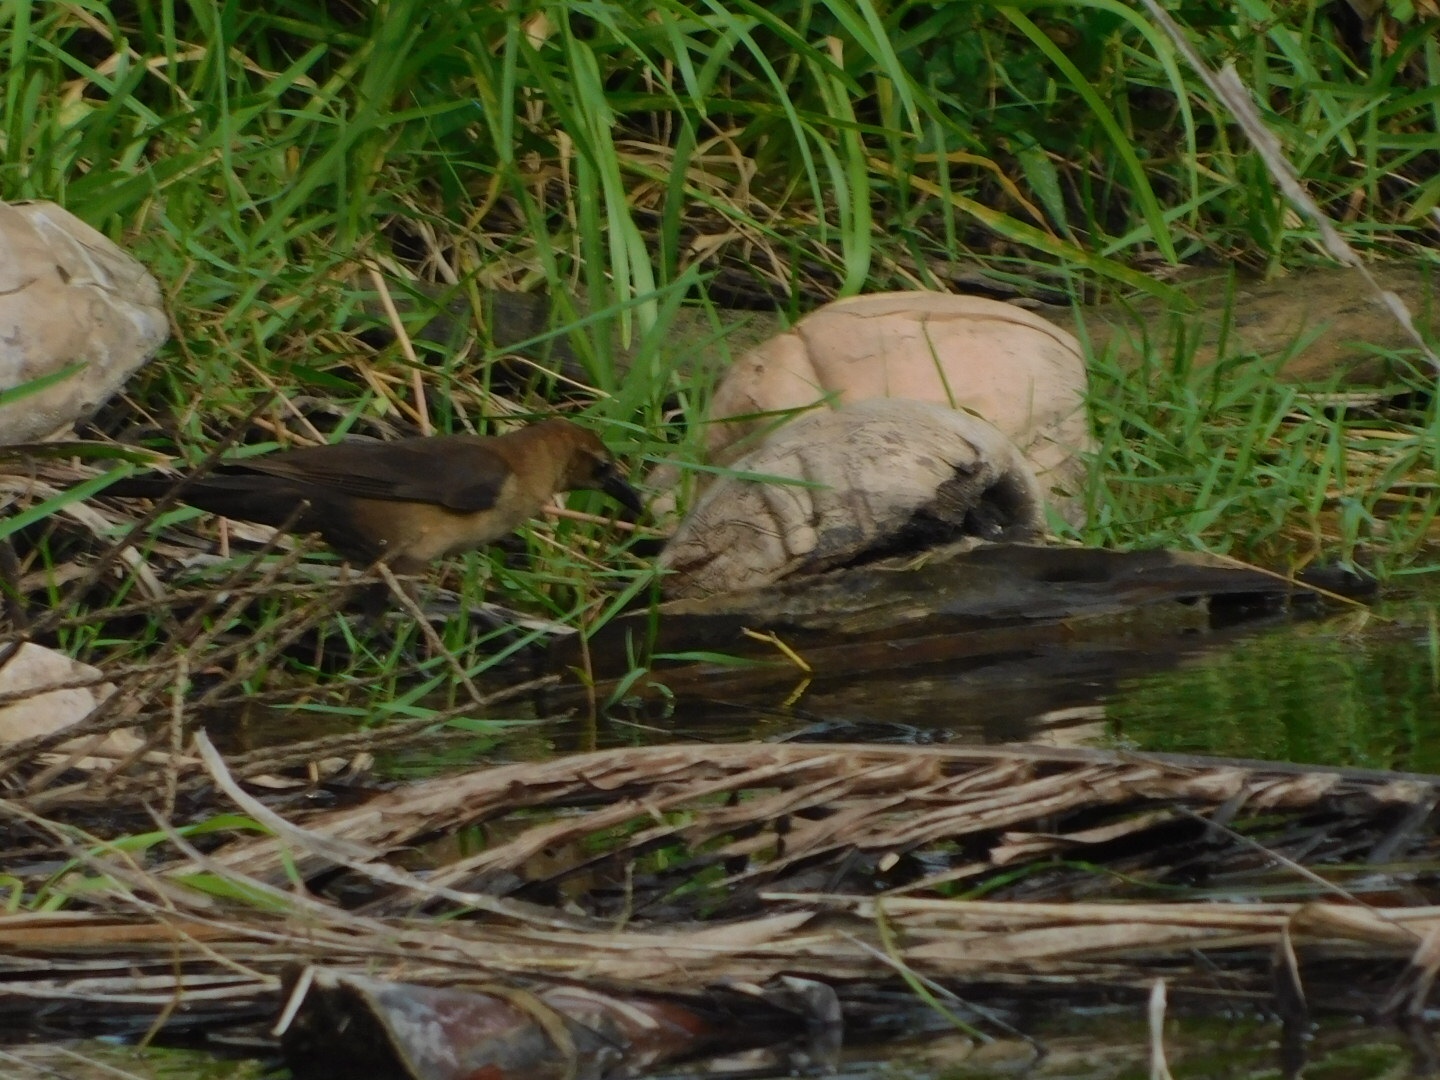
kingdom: Animalia
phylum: Chordata
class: Aves
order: Passeriformes
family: Icteridae
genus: Quiscalus
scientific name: Quiscalus major
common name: Boat-tailed grackle
